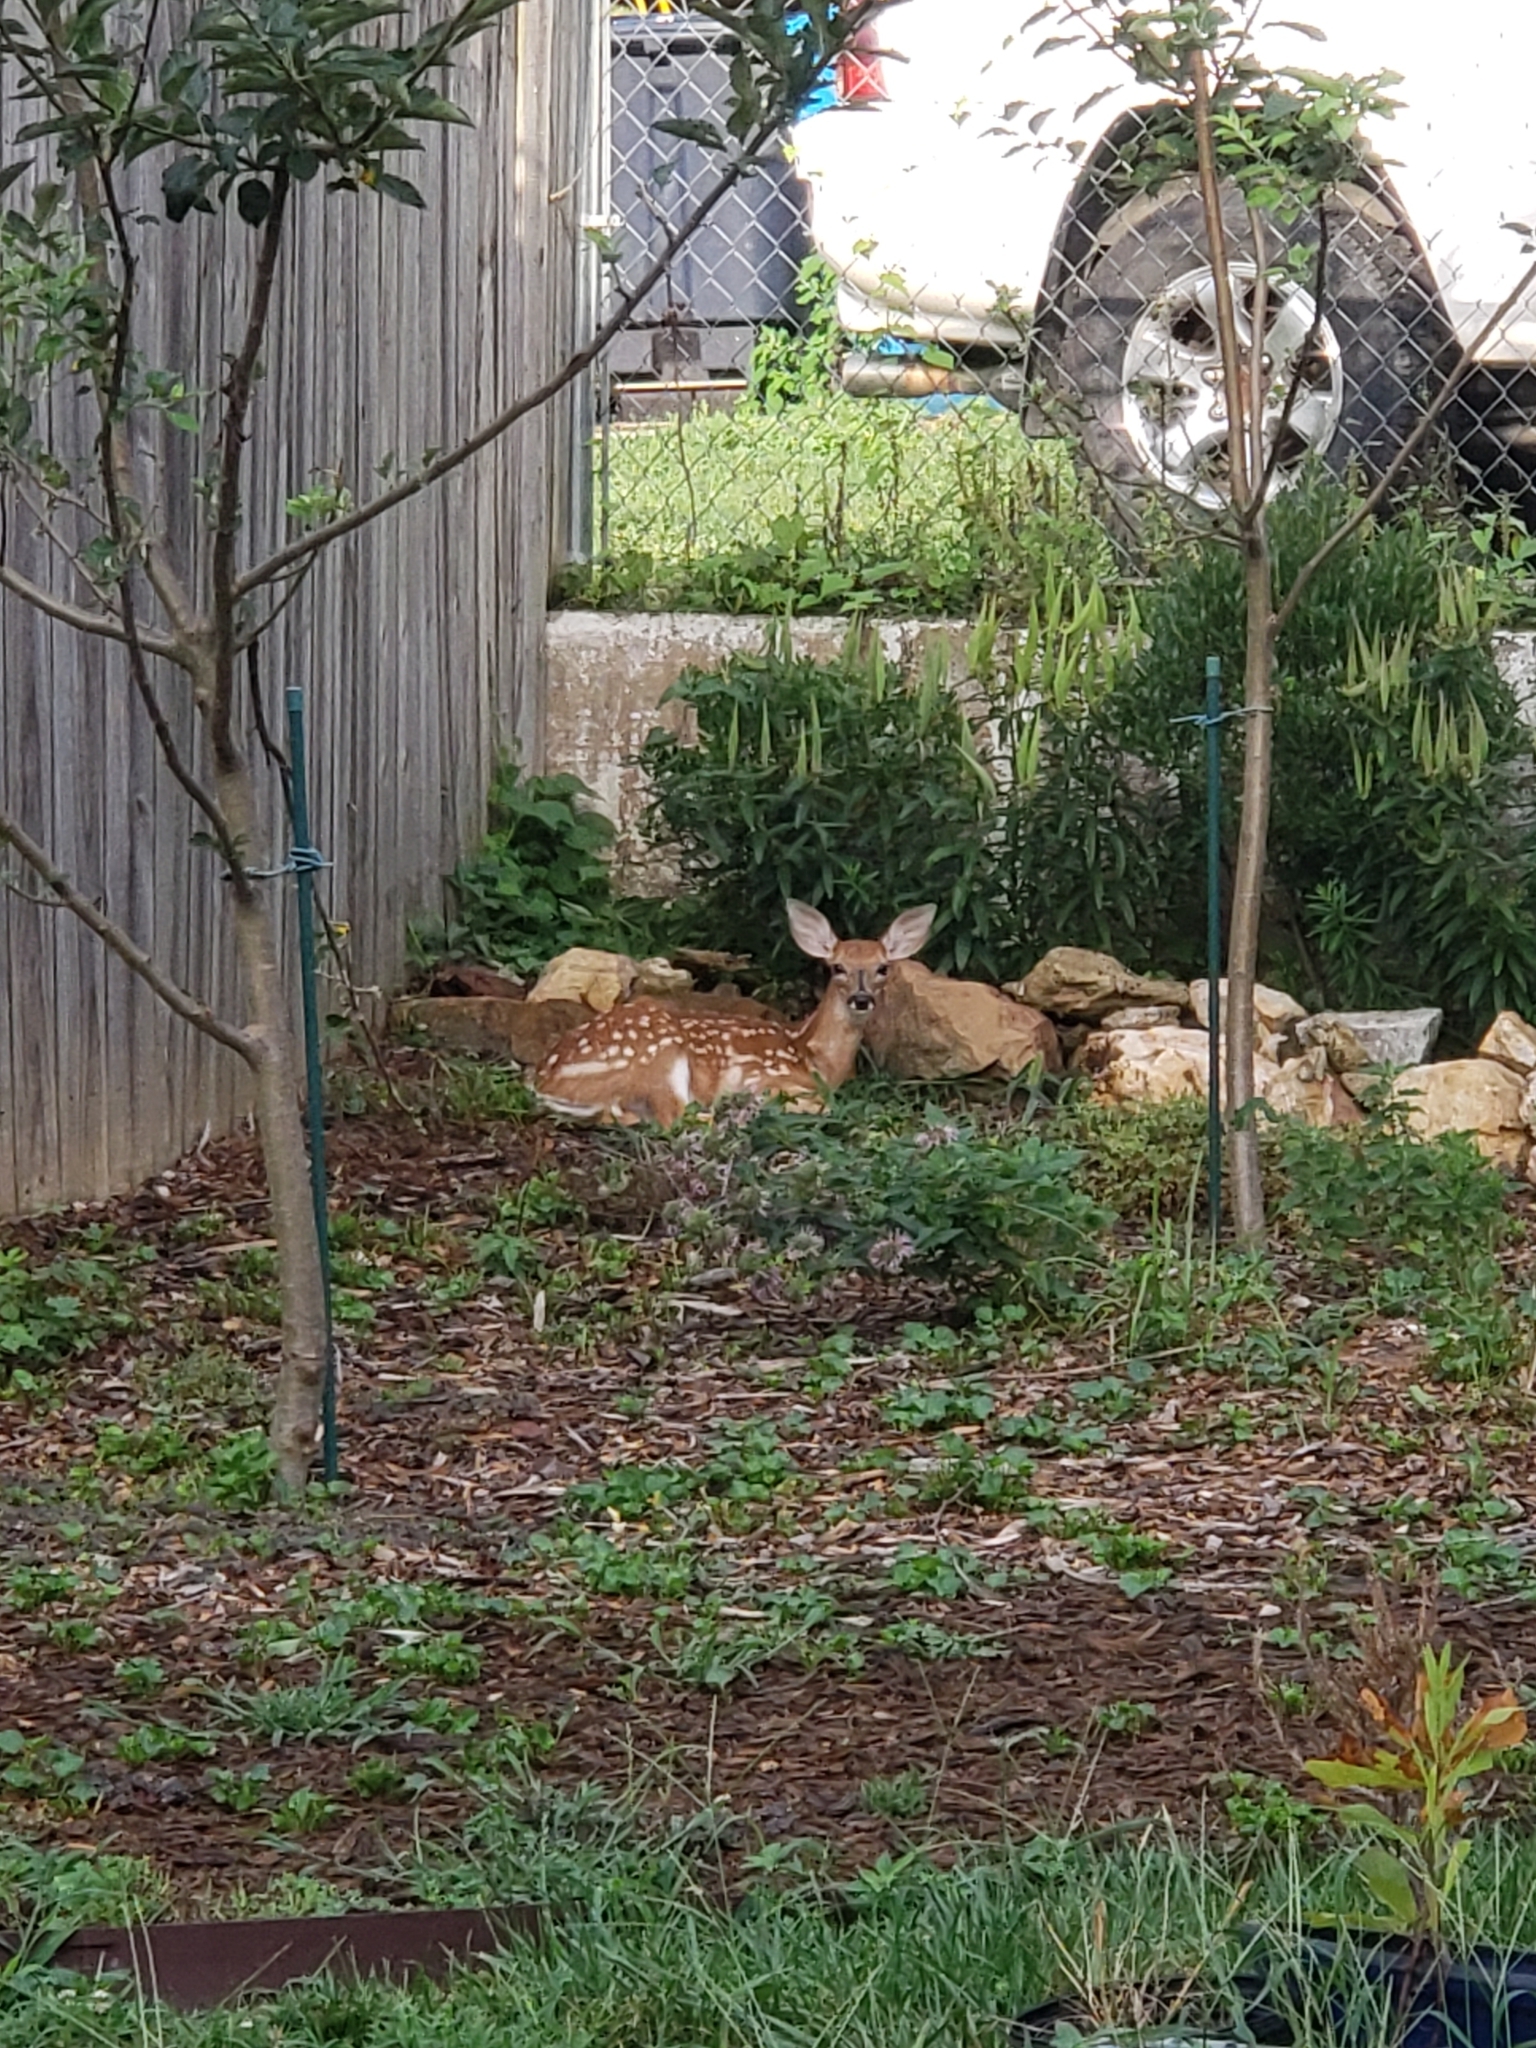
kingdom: Animalia
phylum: Chordata
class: Mammalia
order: Artiodactyla
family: Cervidae
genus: Odocoileus
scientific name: Odocoileus virginianus
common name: White-tailed deer
